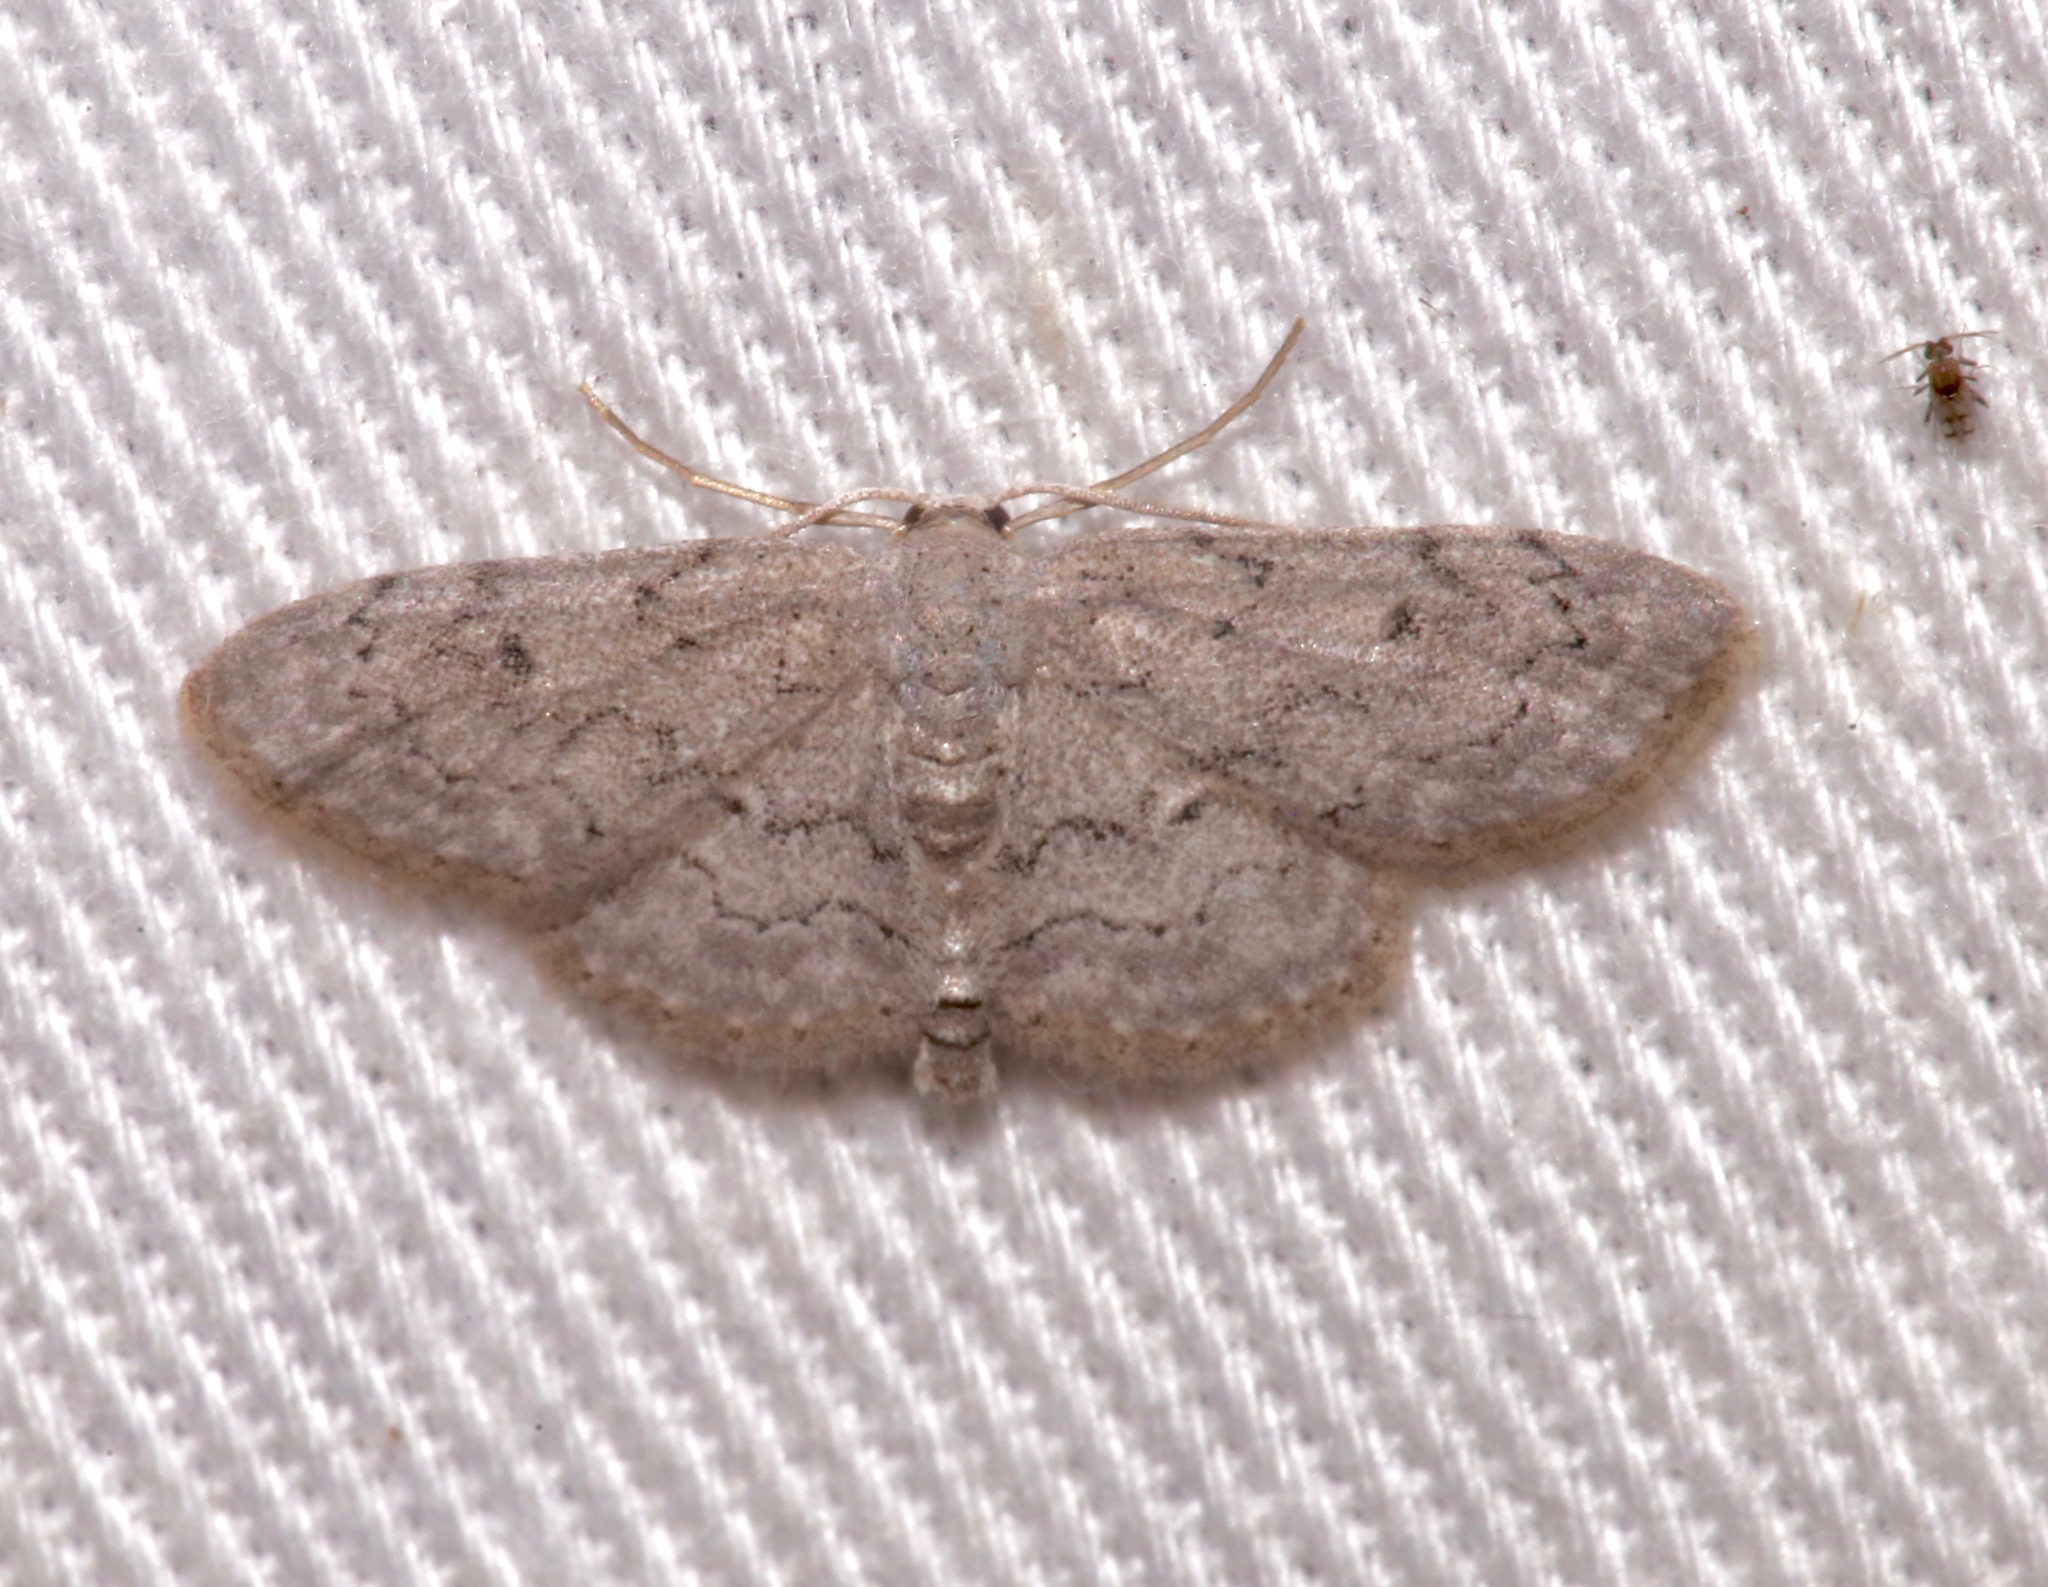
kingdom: Animalia
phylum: Arthropoda
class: Insecta
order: Lepidoptera
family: Geometridae
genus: Idaea
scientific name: Idaea violacearia
